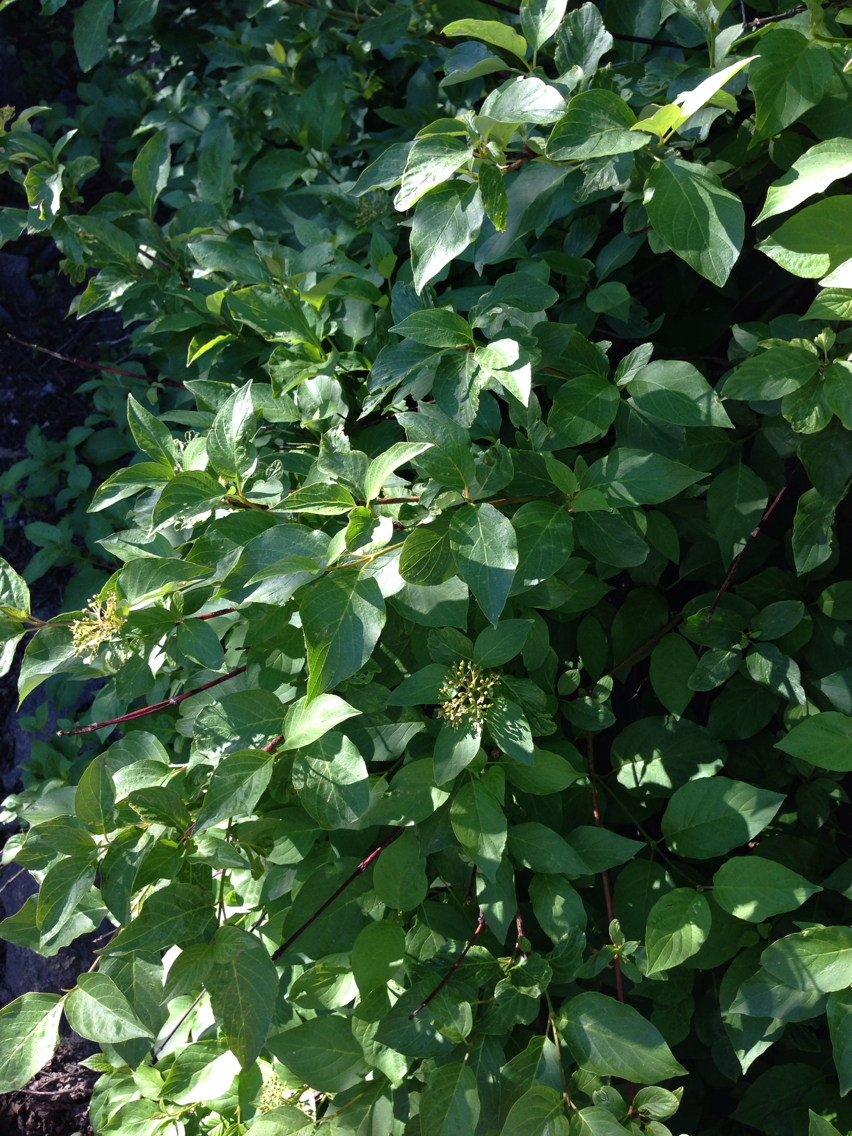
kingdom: Plantae
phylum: Tracheophyta
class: Magnoliopsida
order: Cornales
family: Cornaceae
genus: Cornus
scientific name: Cornus sericea
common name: Red-osier dogwood
